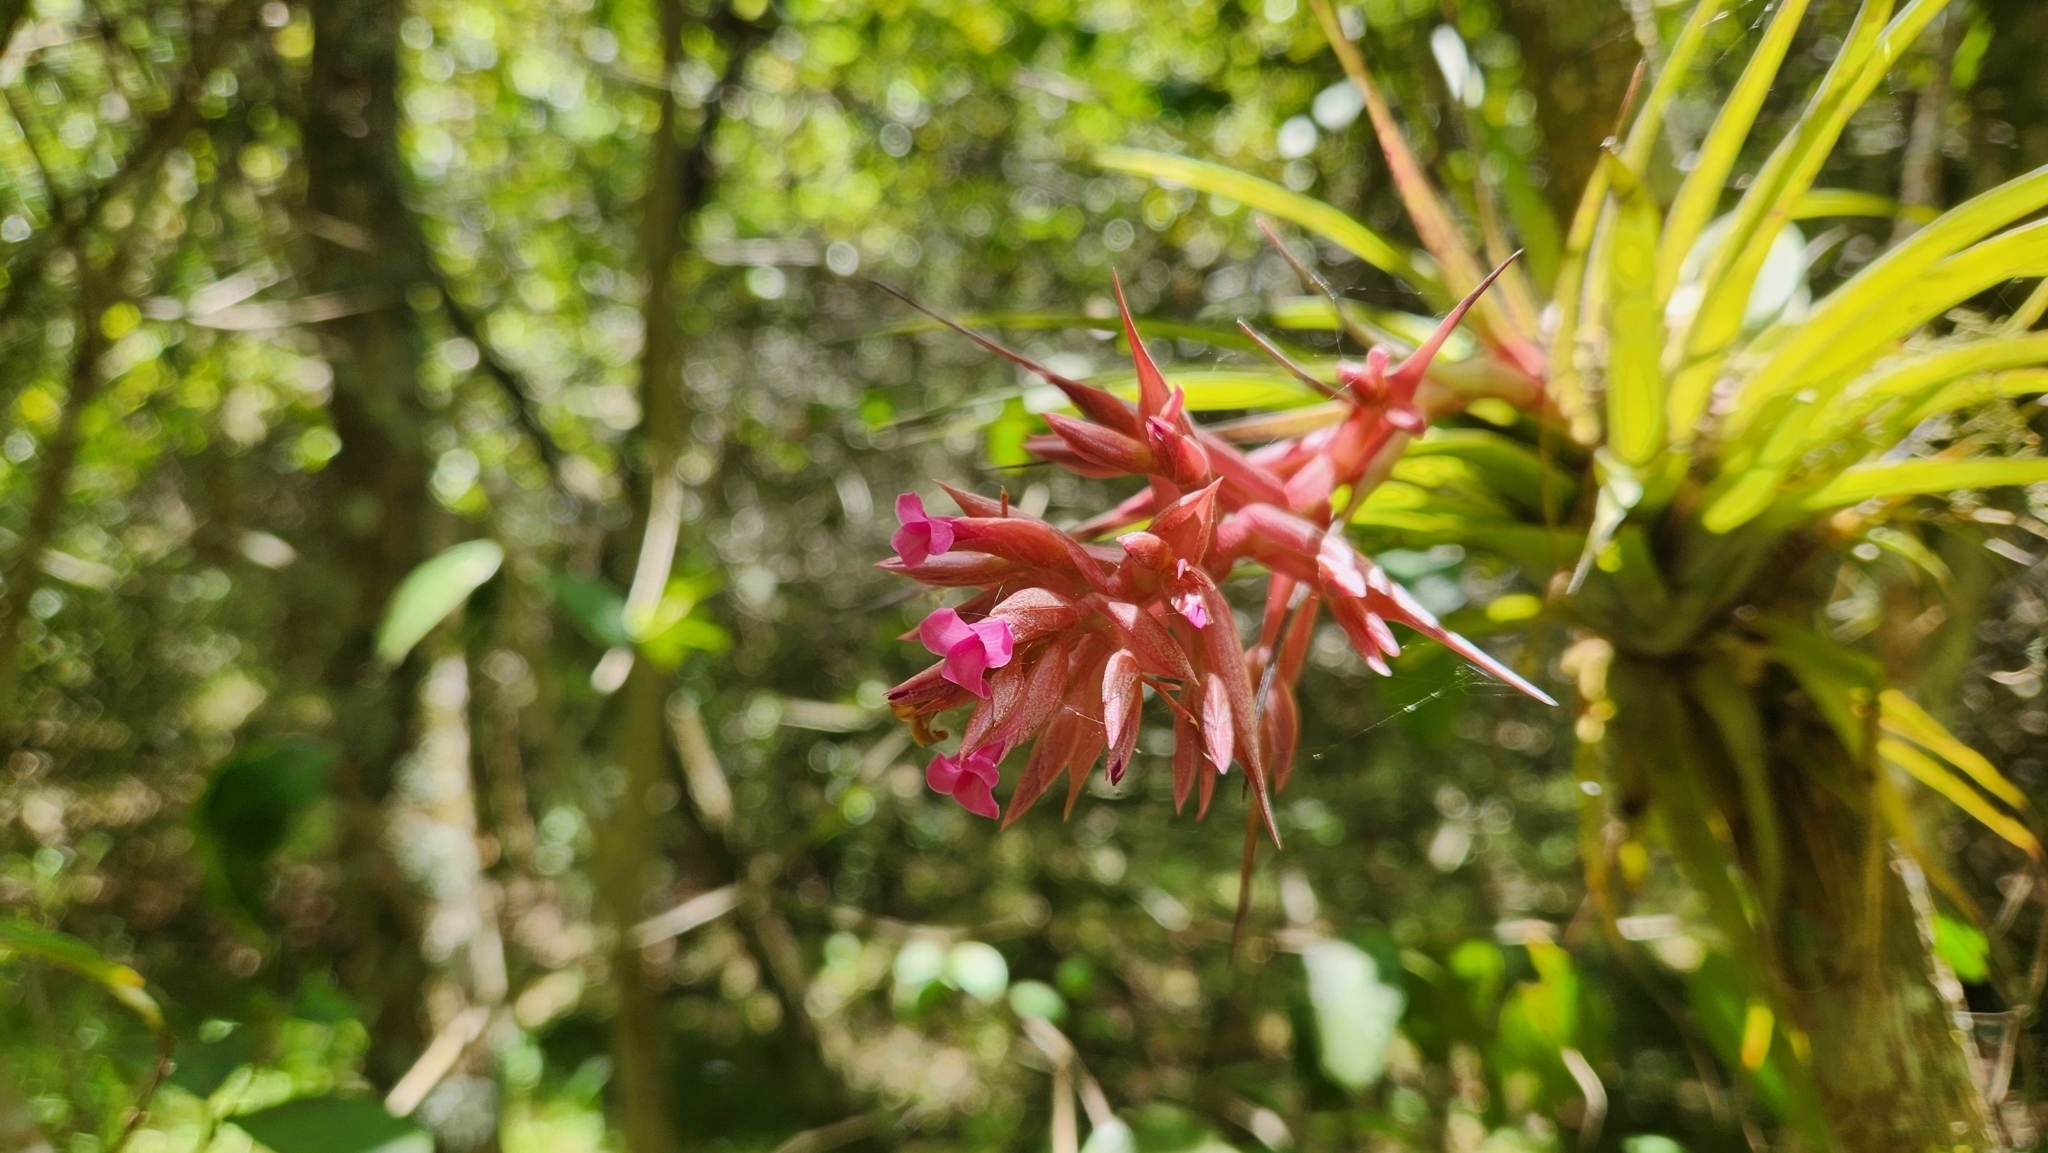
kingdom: Plantae
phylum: Tracheophyta
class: Liliopsida
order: Poales
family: Bromeliaceae
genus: Tillandsia
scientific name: Tillandsia geminiflora
